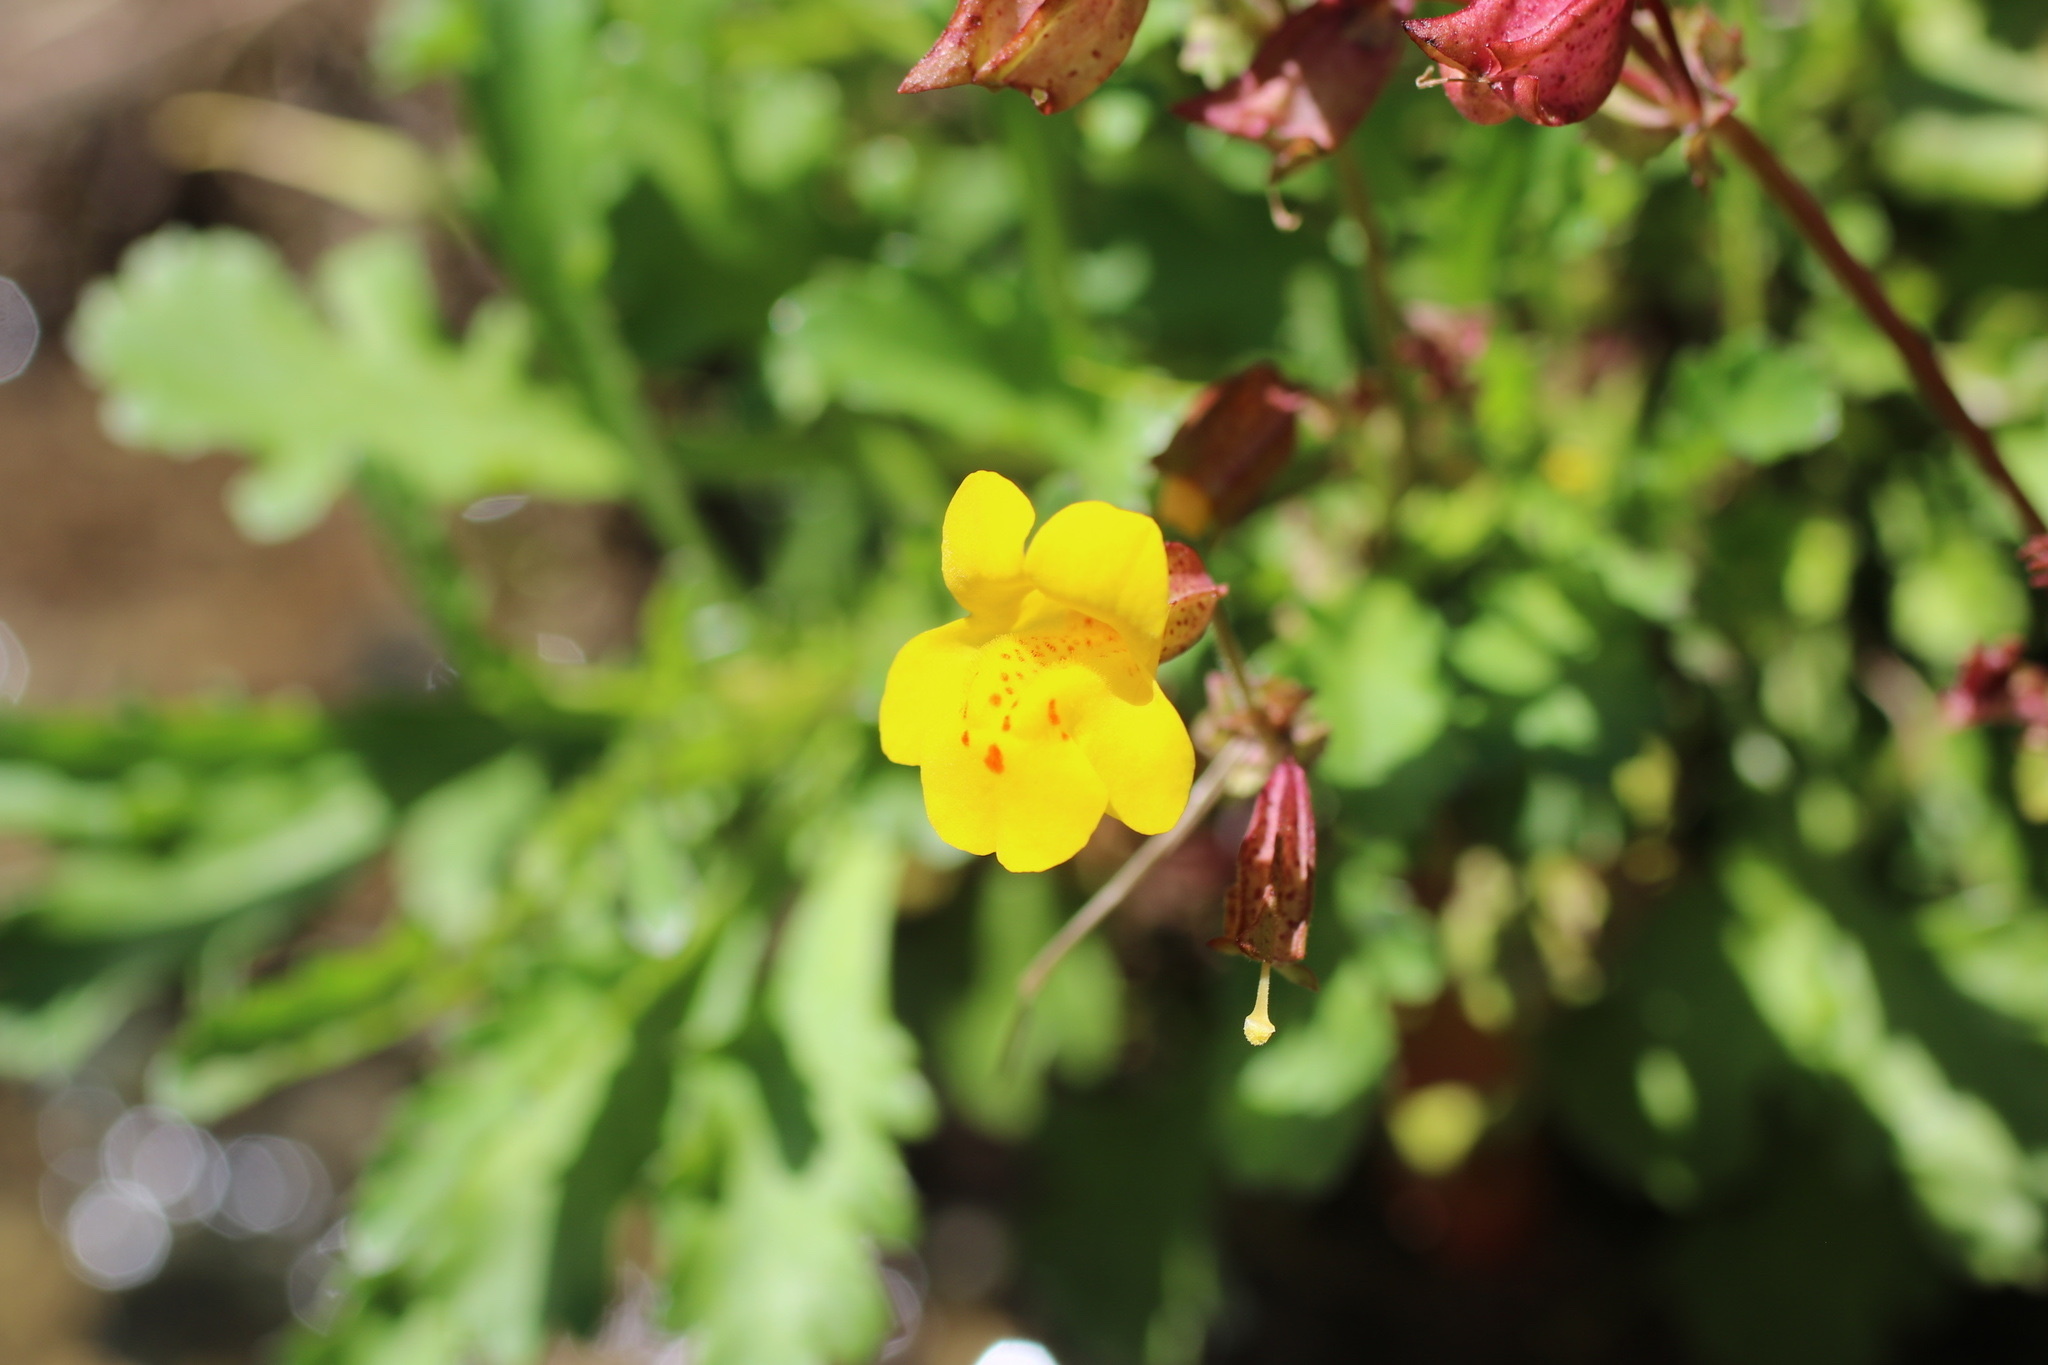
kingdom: Plantae
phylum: Tracheophyta
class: Magnoliopsida
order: Lamiales
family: Phrymaceae
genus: Erythranthe
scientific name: Erythranthe guttata
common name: Monkeyflower
